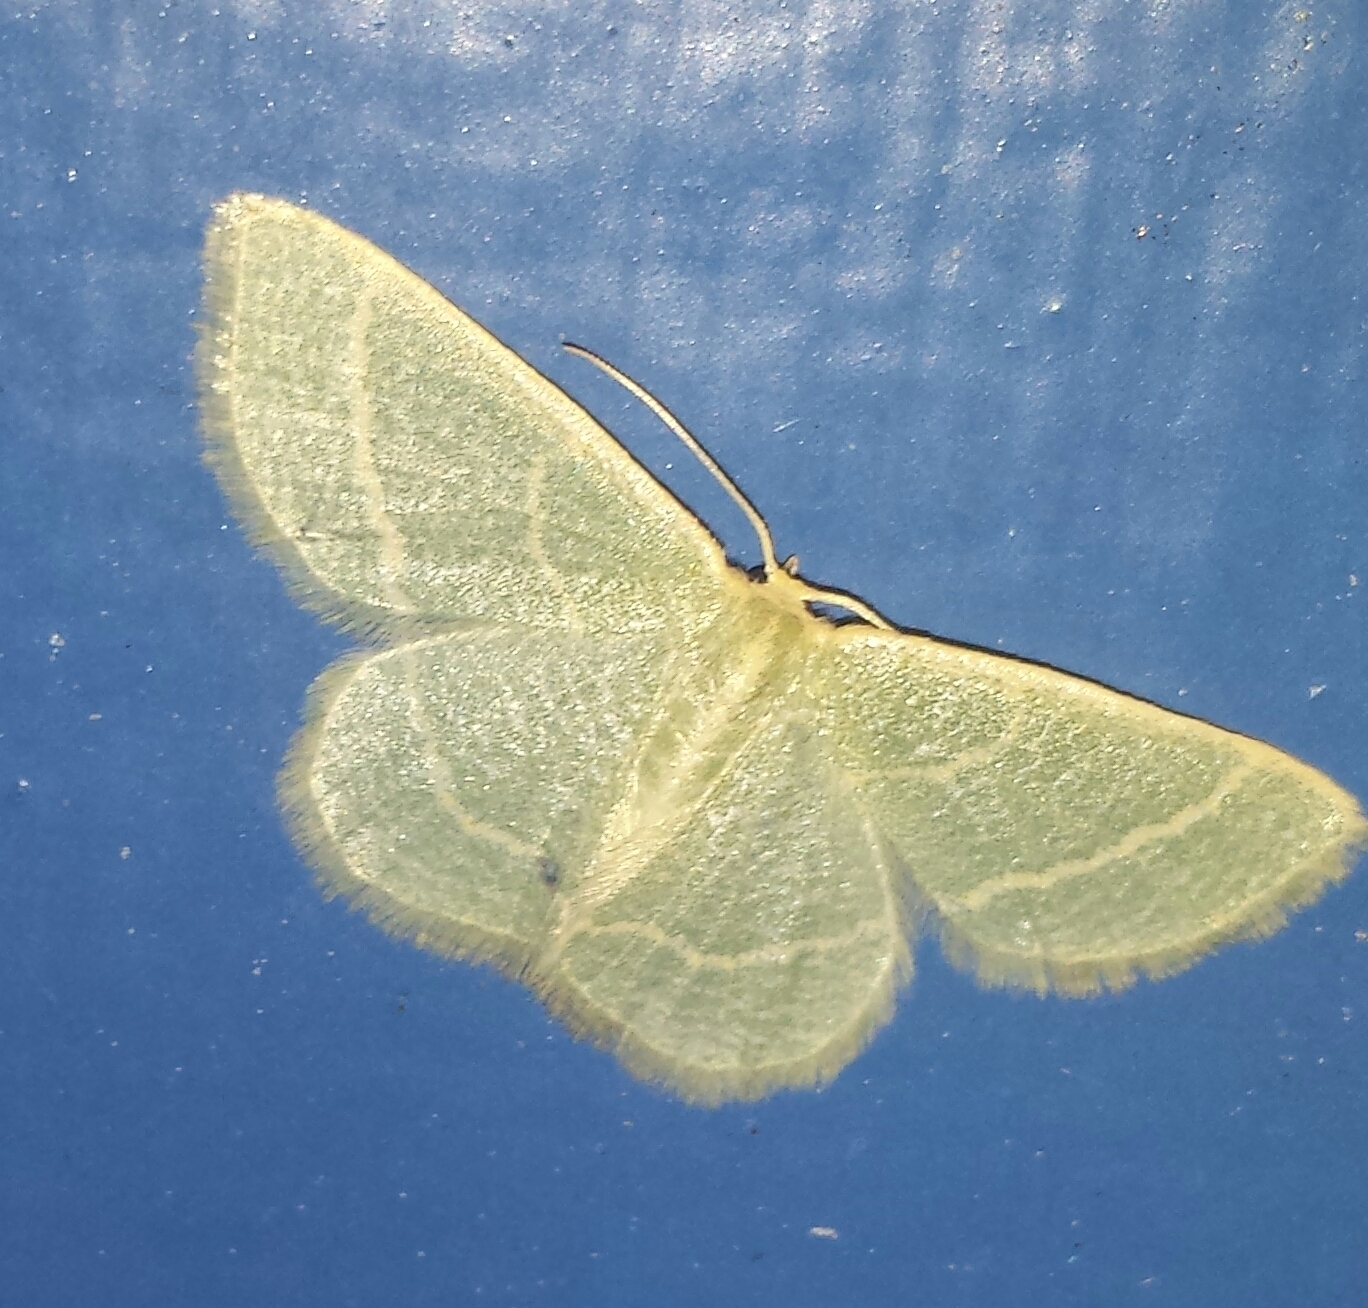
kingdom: Animalia
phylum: Arthropoda
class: Insecta
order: Lepidoptera
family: Geometridae
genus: Chlorochlamys
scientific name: Chlorochlamys chloroleucaria
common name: Blackberry looper
